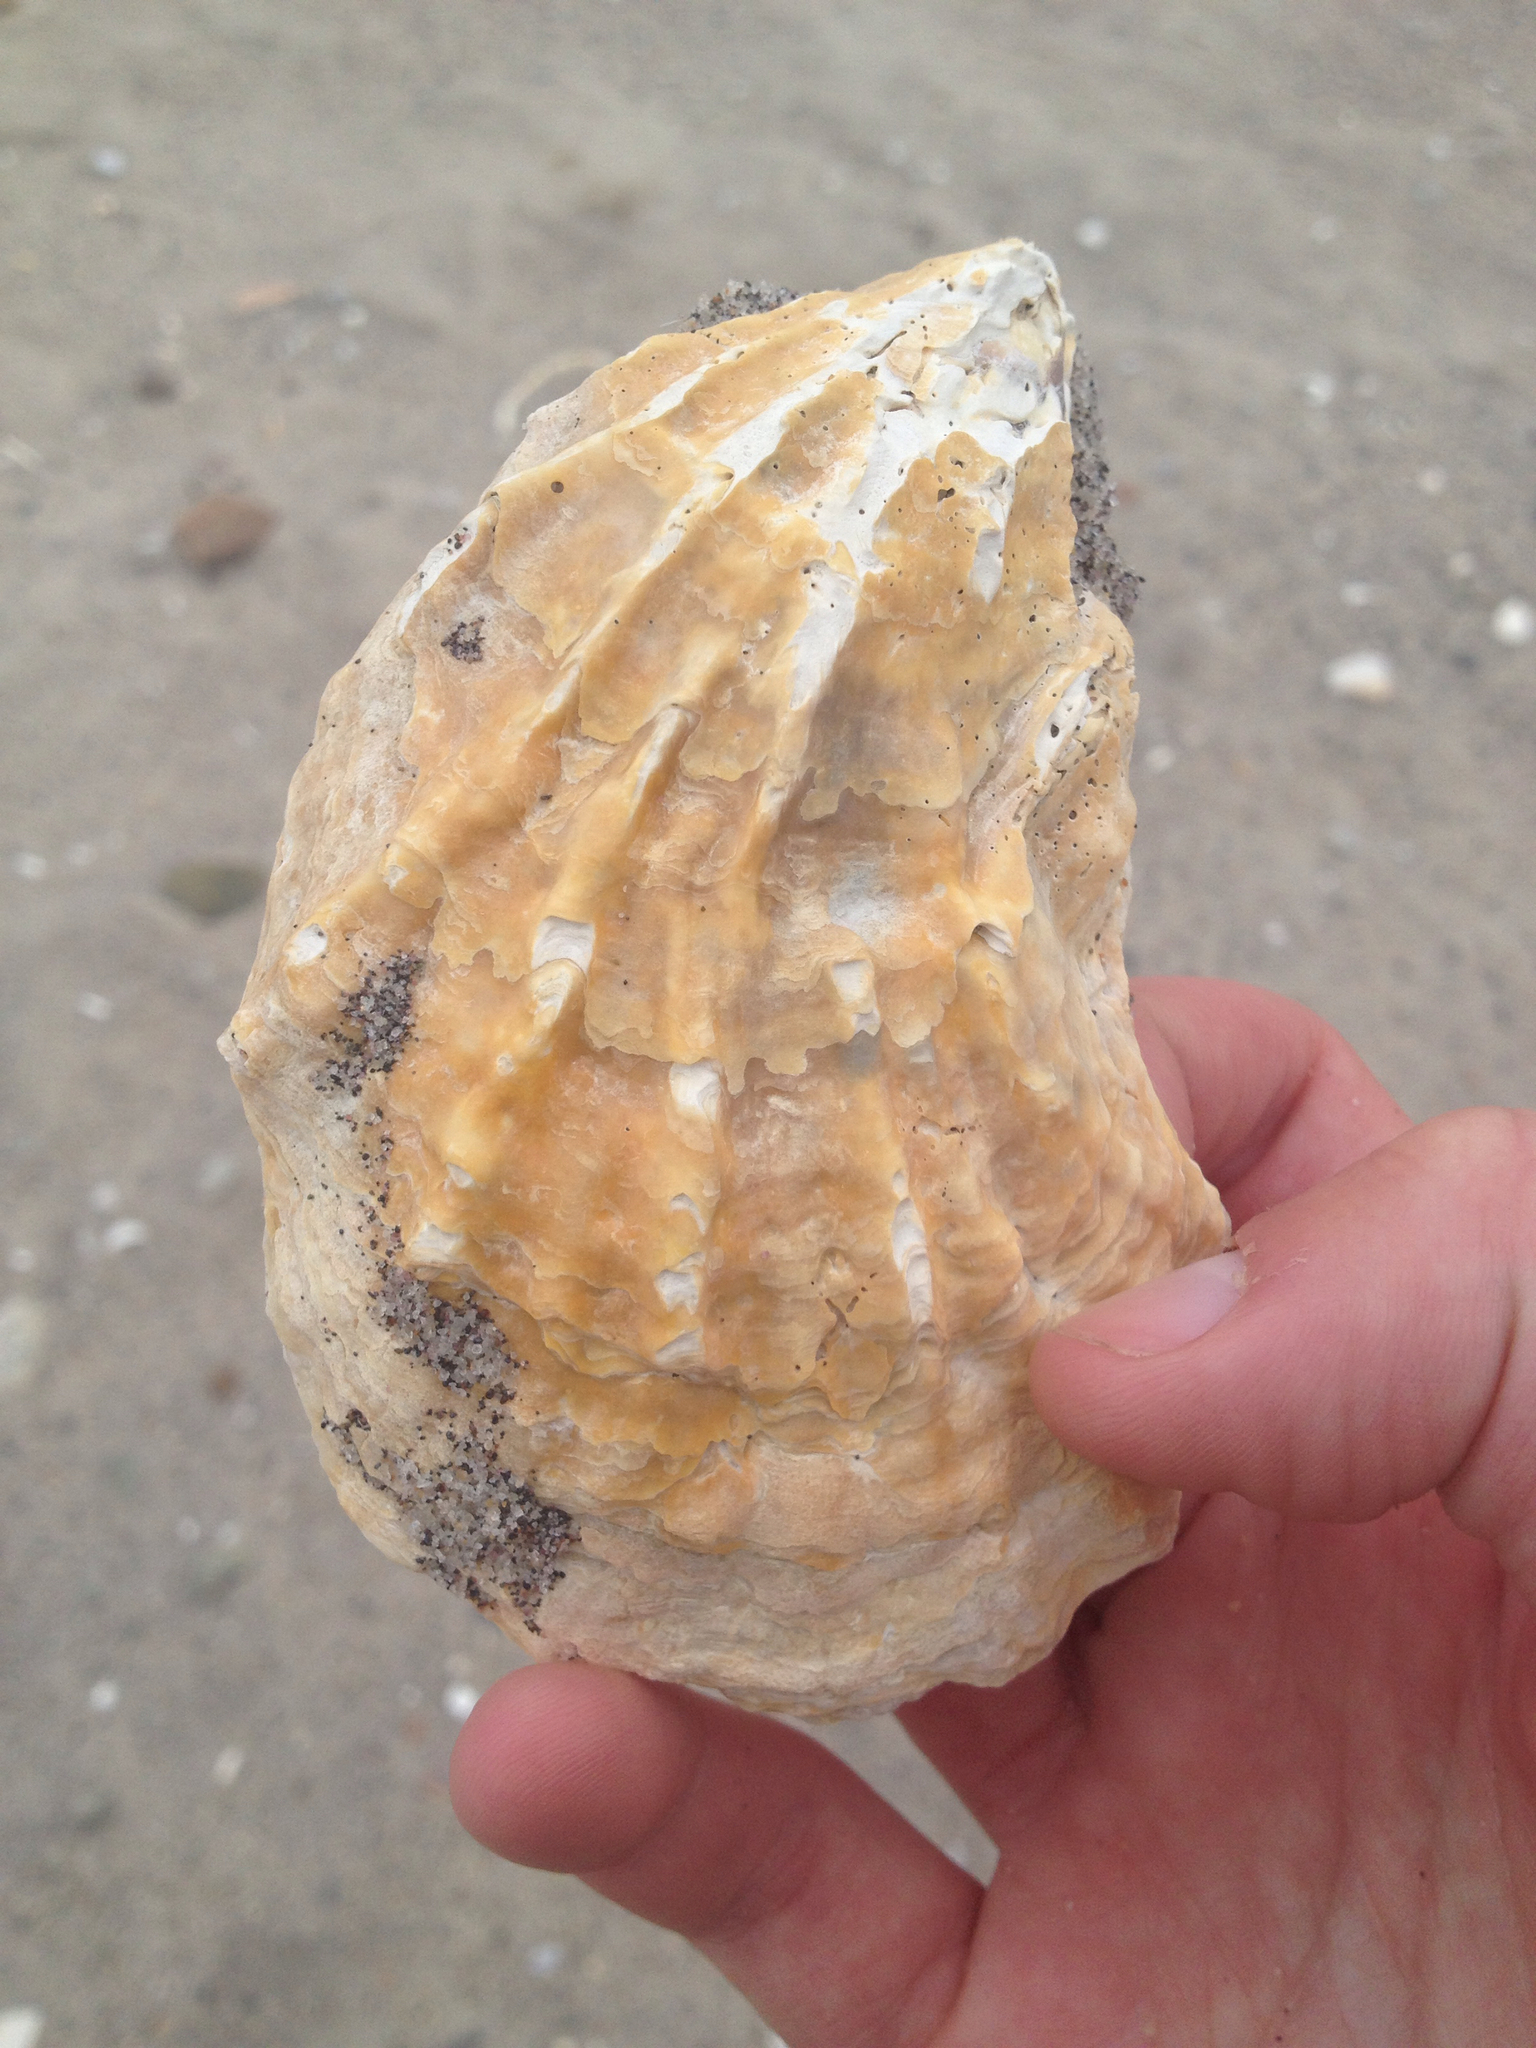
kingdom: Animalia
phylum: Mollusca
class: Bivalvia
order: Ostreida
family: Ostreidae
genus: Crassostrea
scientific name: Crassostrea virginica
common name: American oyster
